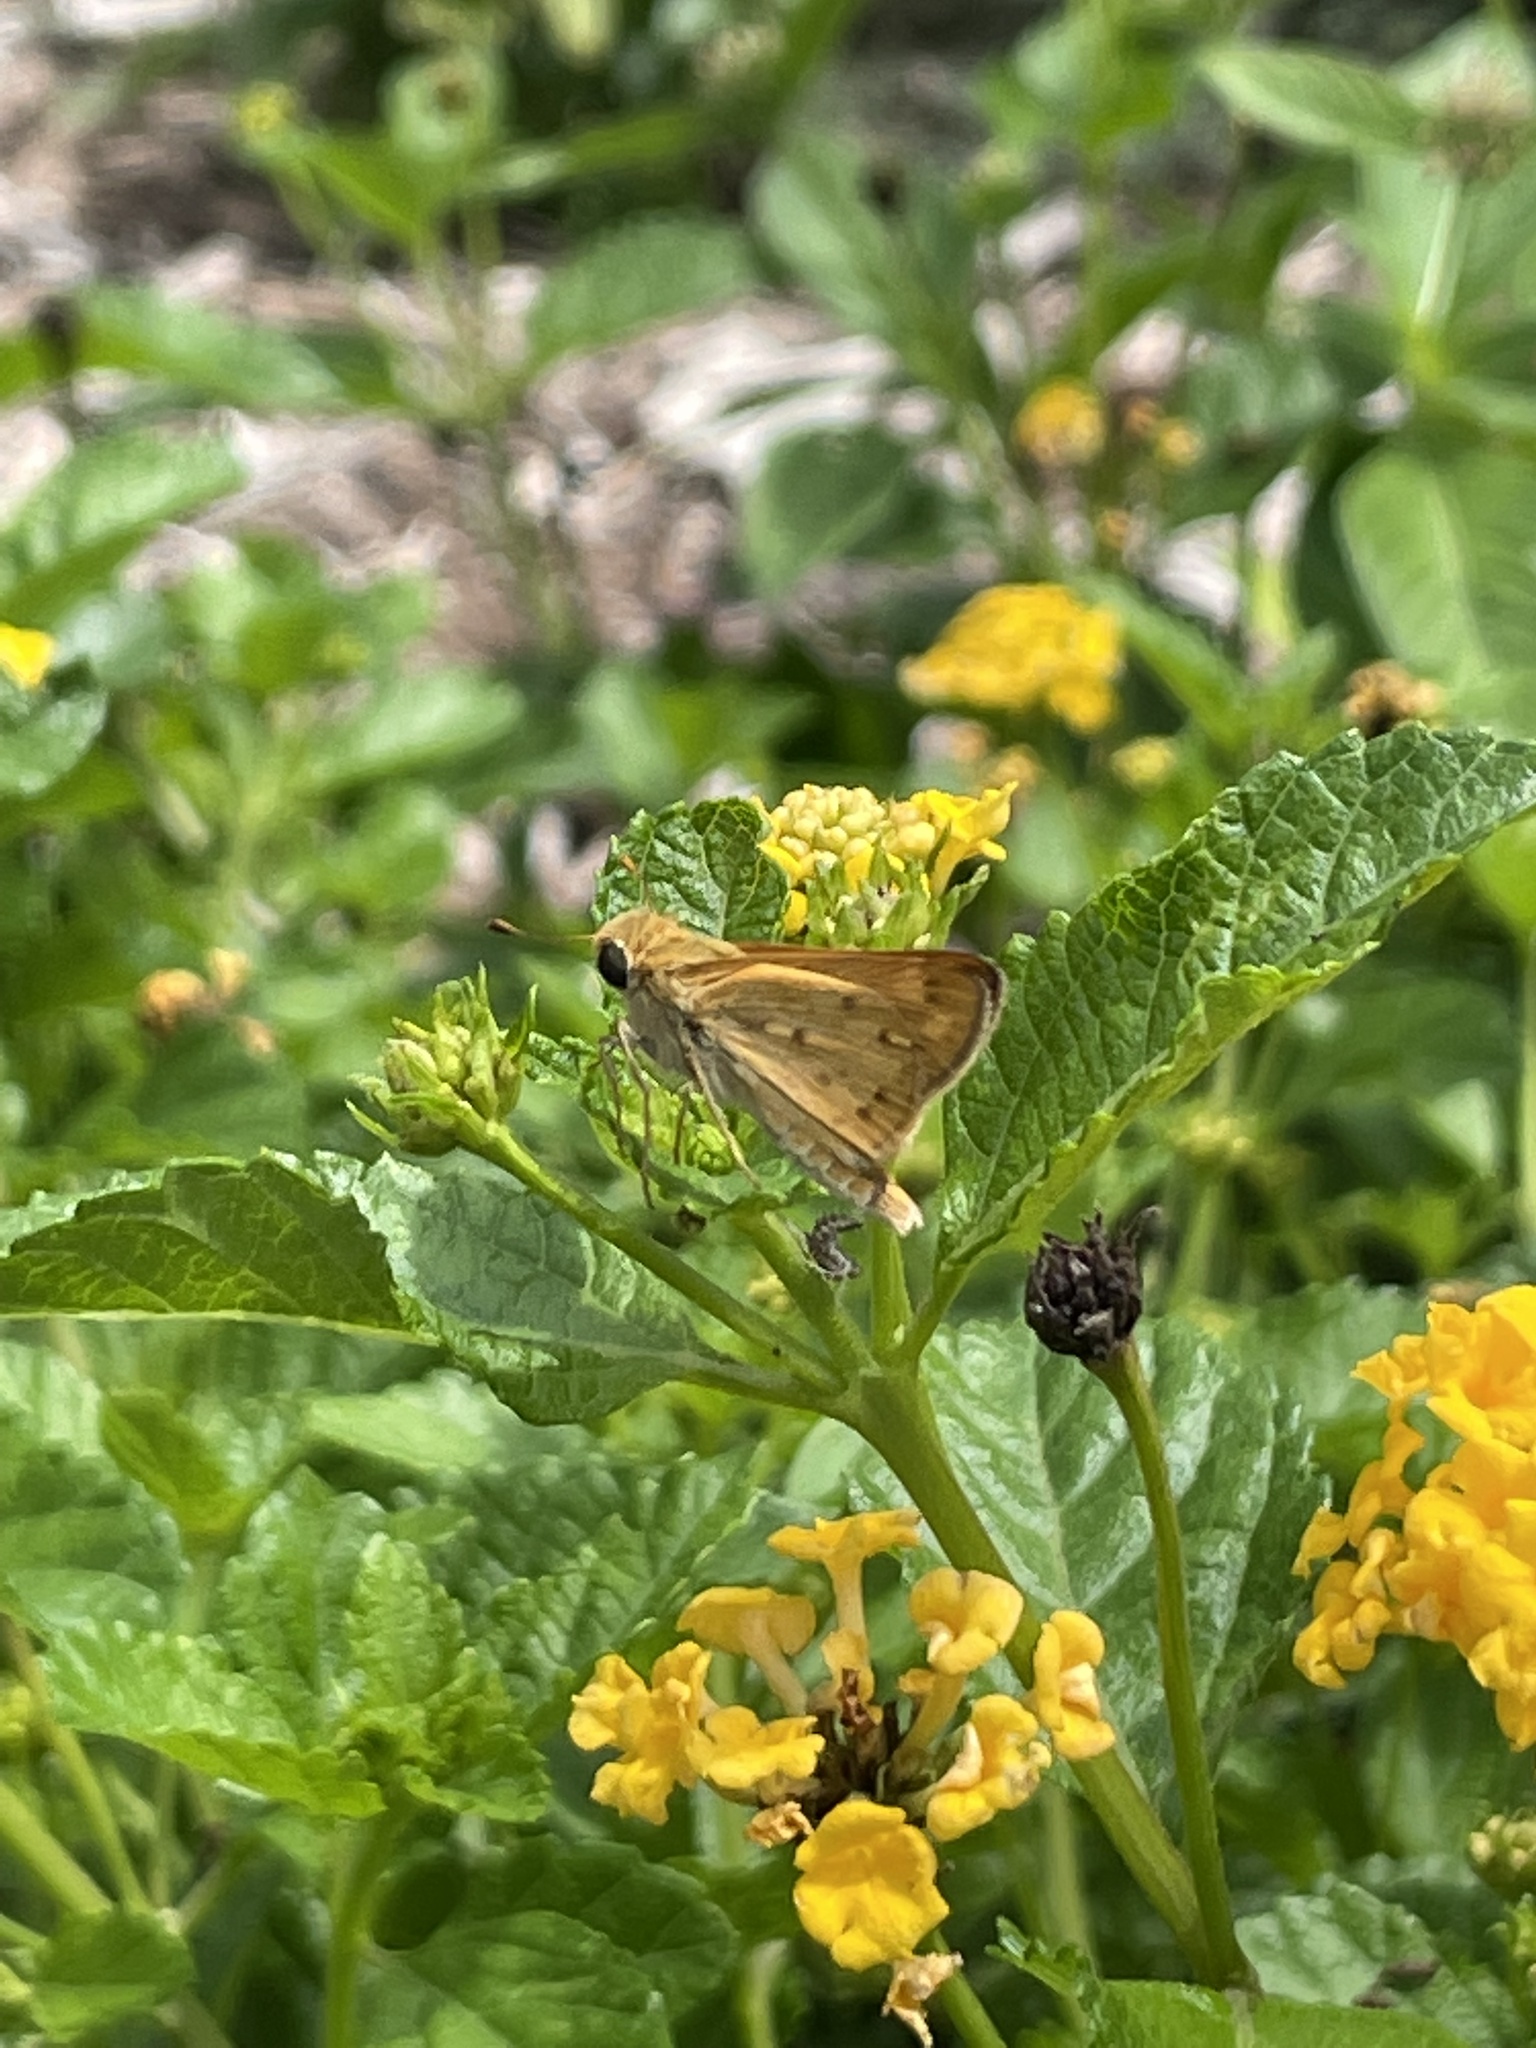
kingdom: Animalia
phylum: Arthropoda
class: Insecta
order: Lepidoptera
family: Hesperiidae
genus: Hylephila
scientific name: Hylephila phyleus
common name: Fiery skipper
